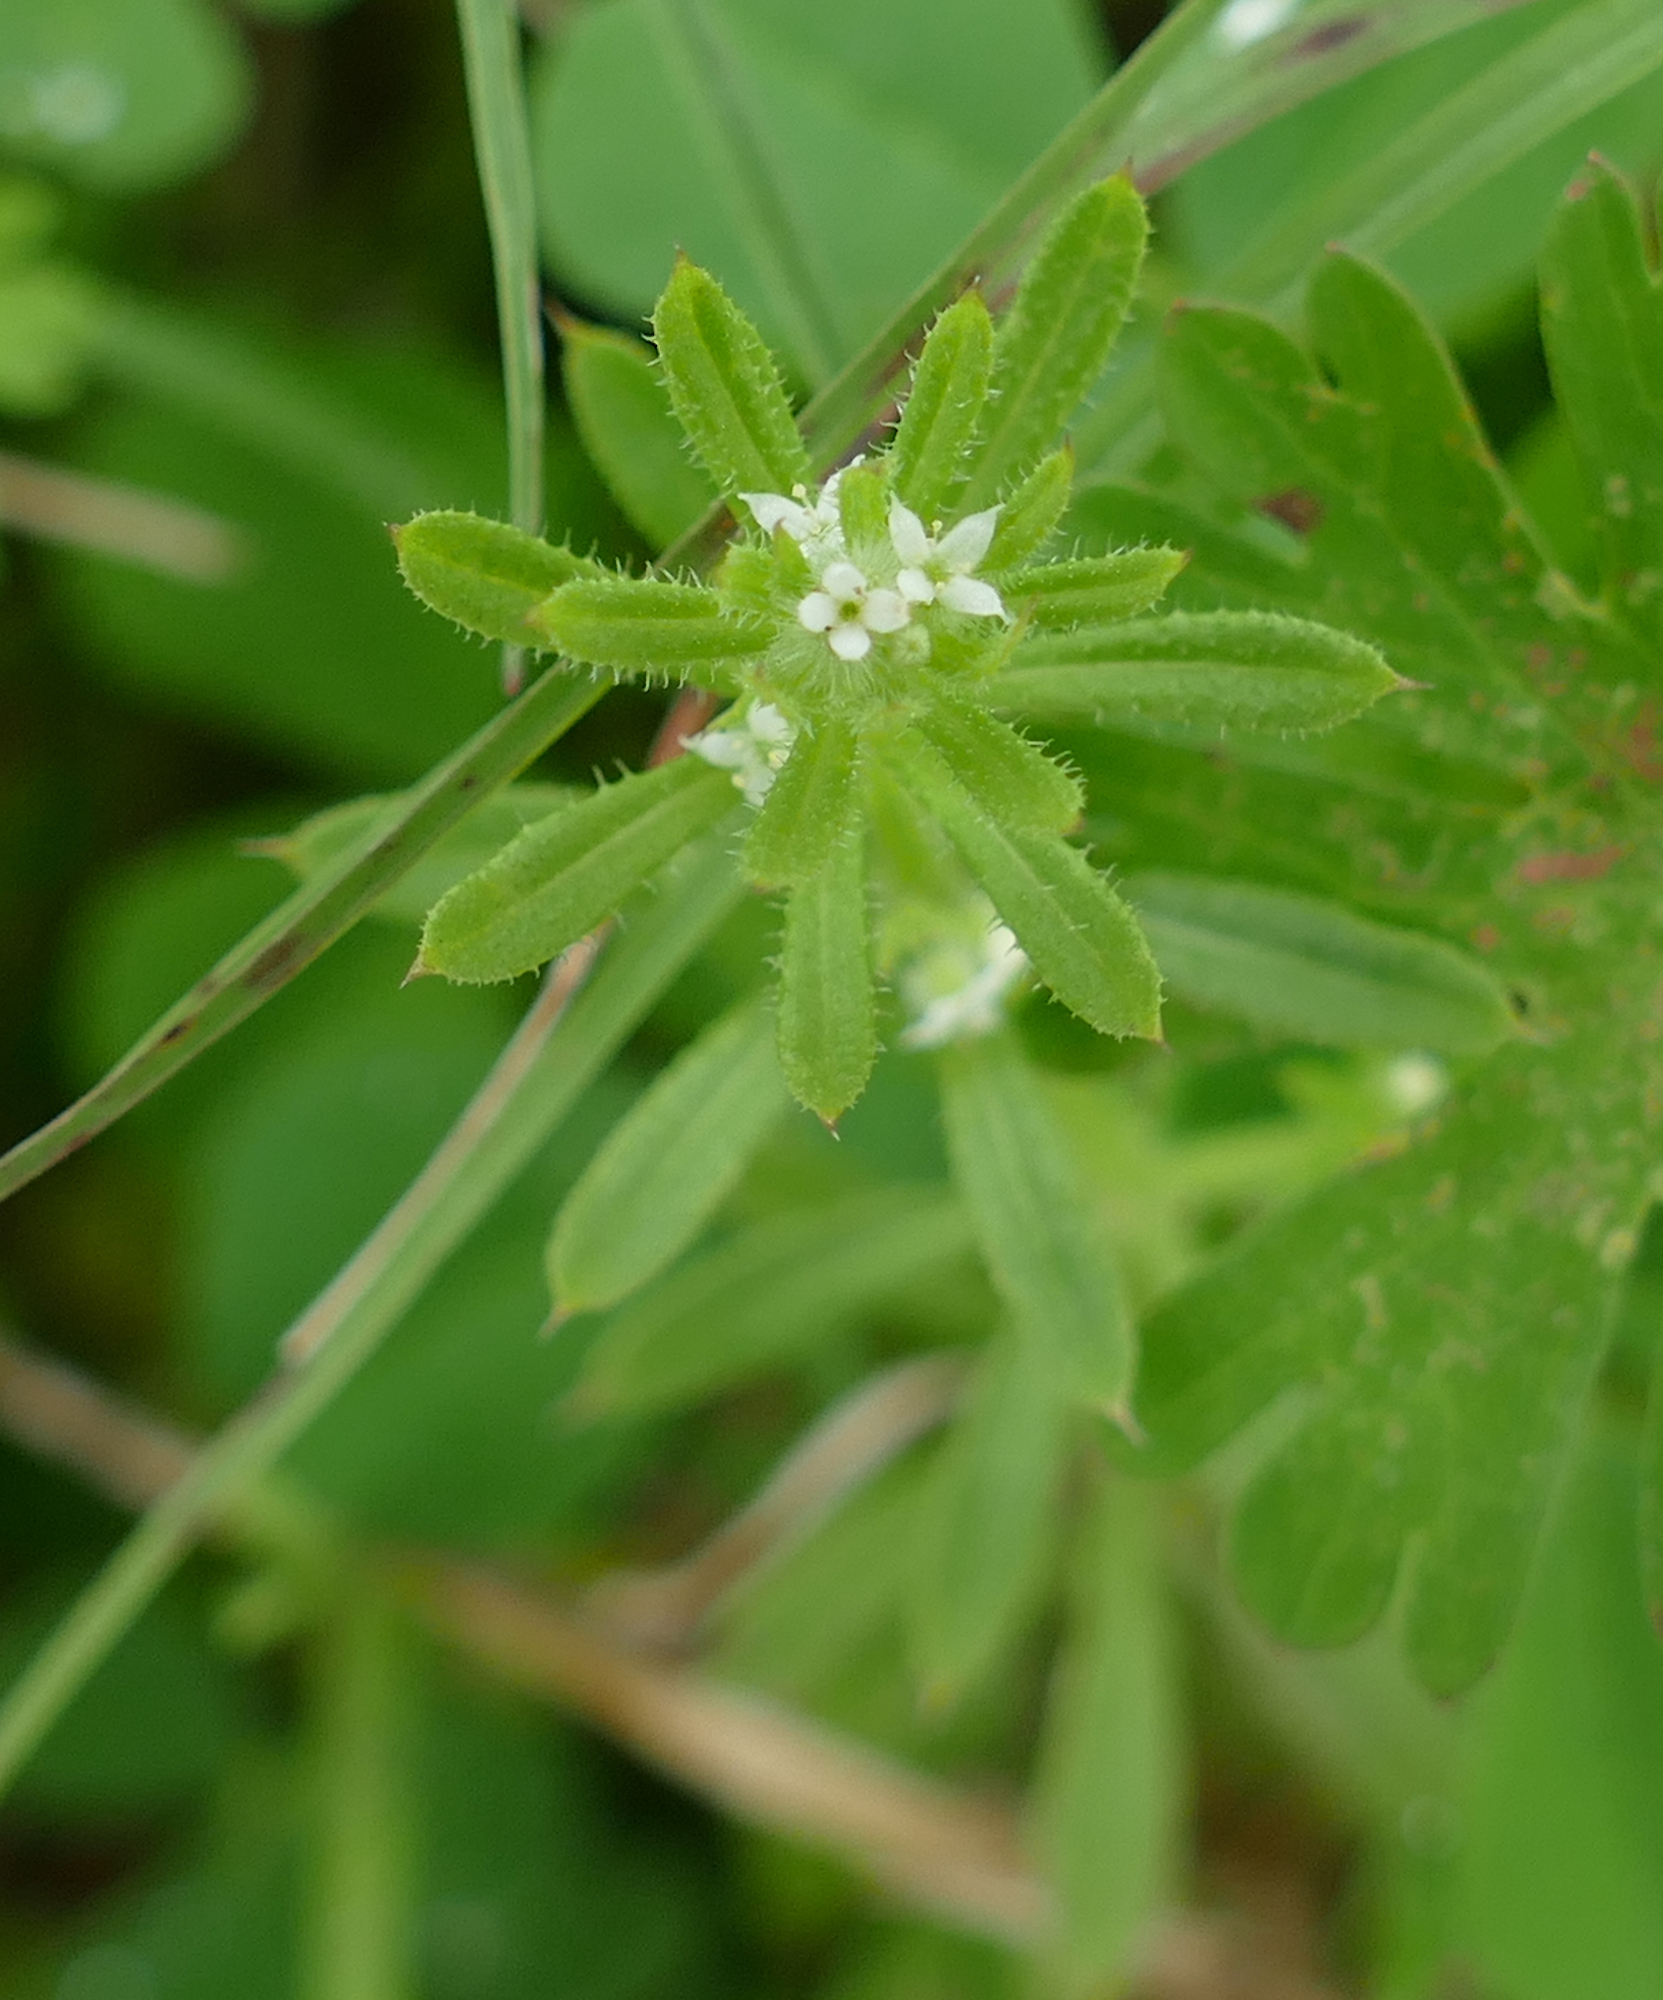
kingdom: Plantae
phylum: Tracheophyta
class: Magnoliopsida
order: Gentianales
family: Rubiaceae
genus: Galium
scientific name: Galium aparine
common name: Cleavers
